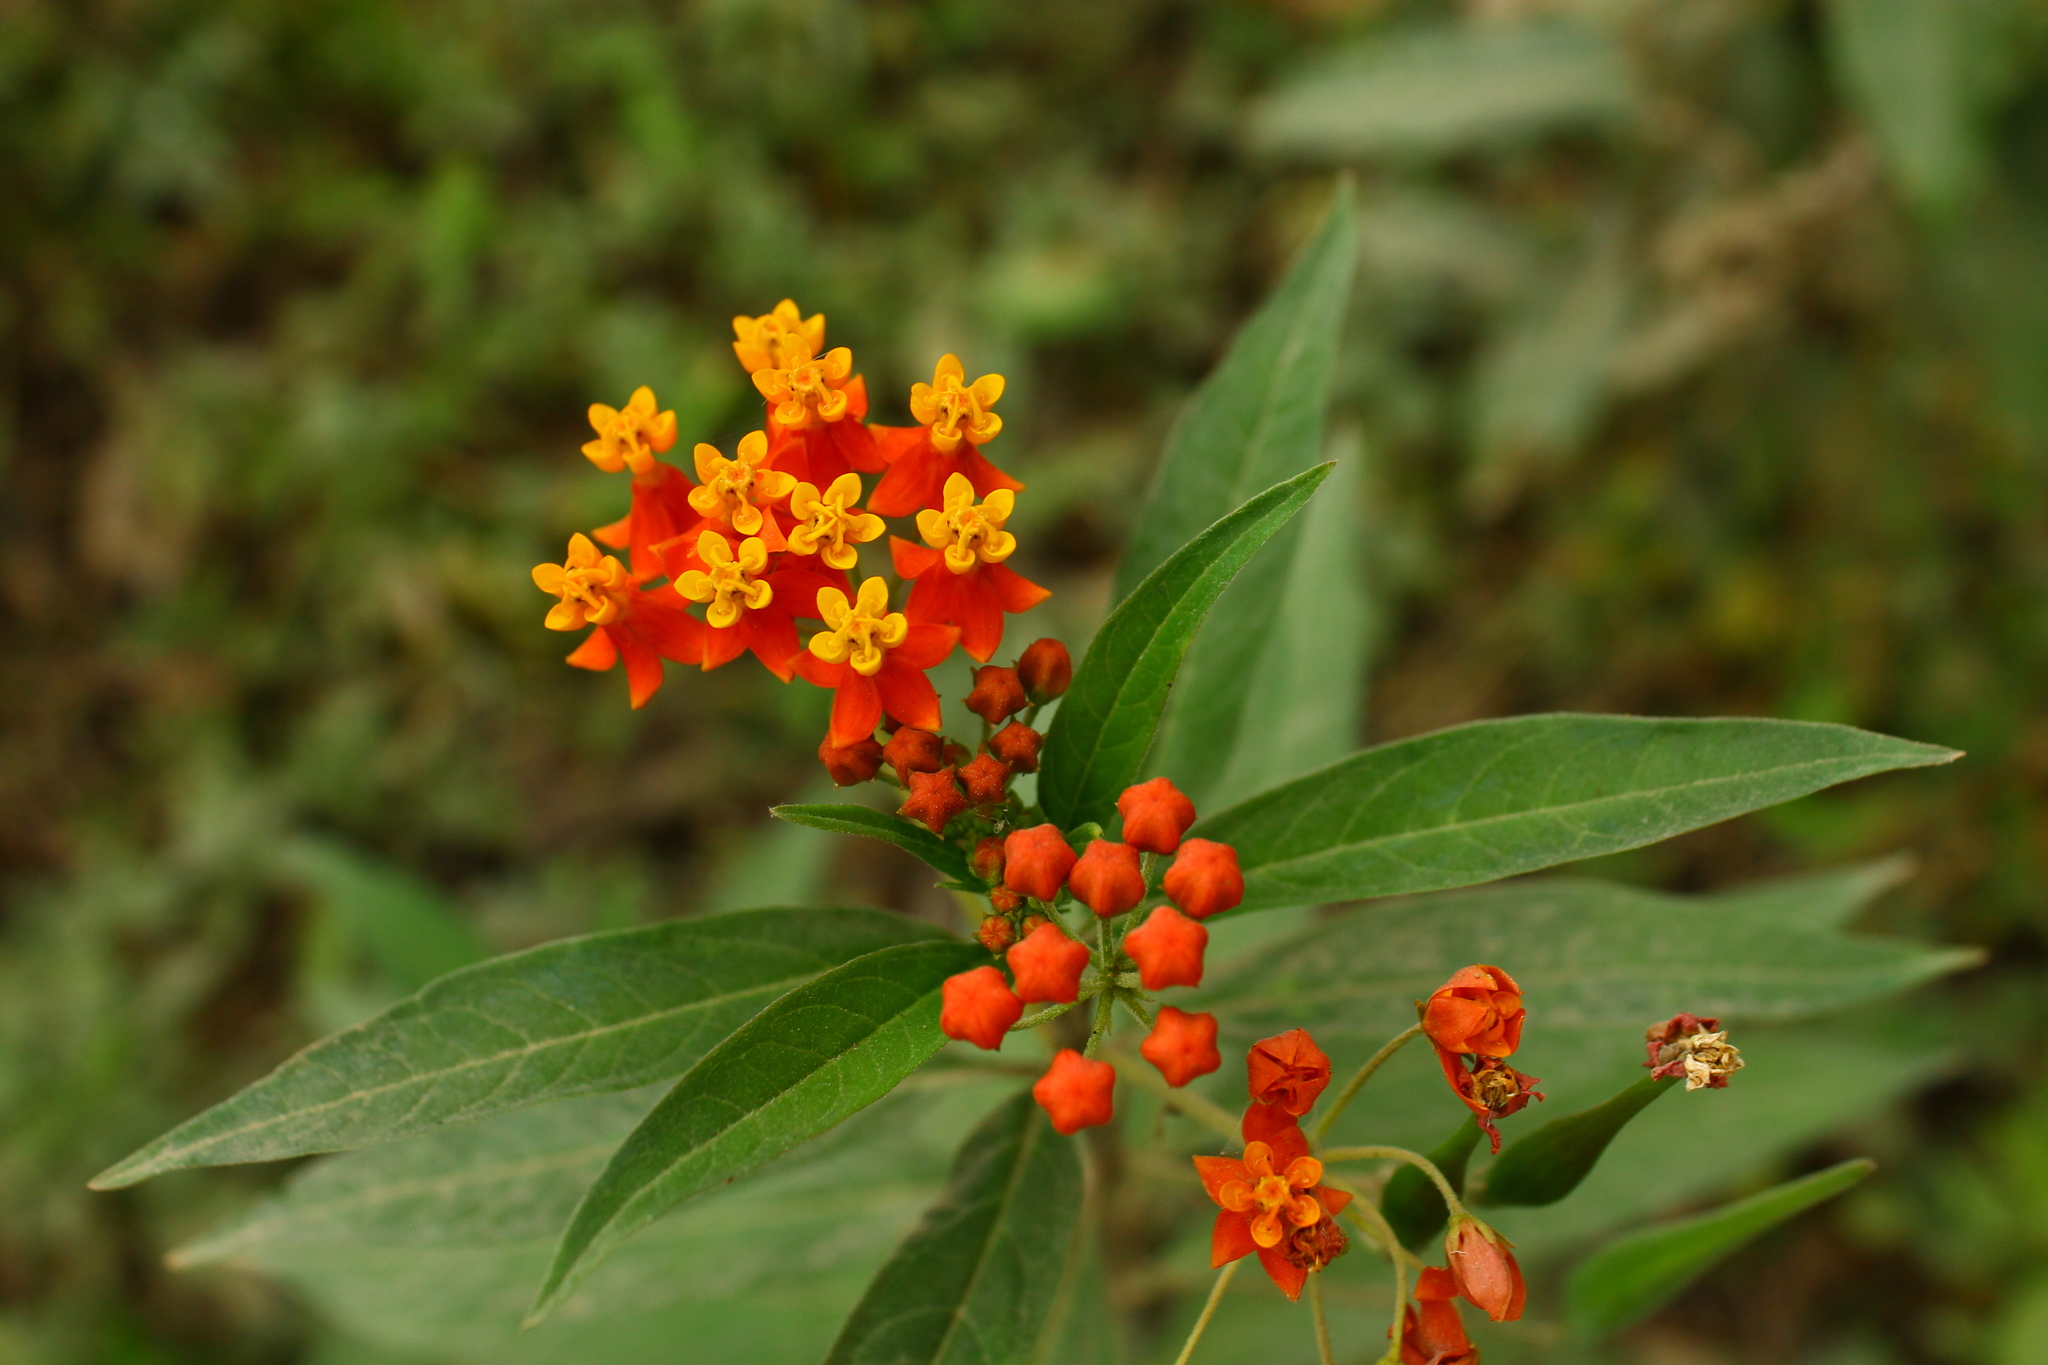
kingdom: Plantae
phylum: Tracheophyta
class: Magnoliopsida
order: Gentianales
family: Apocynaceae
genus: Asclepias
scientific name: Asclepias curassavica
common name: Bloodflower
